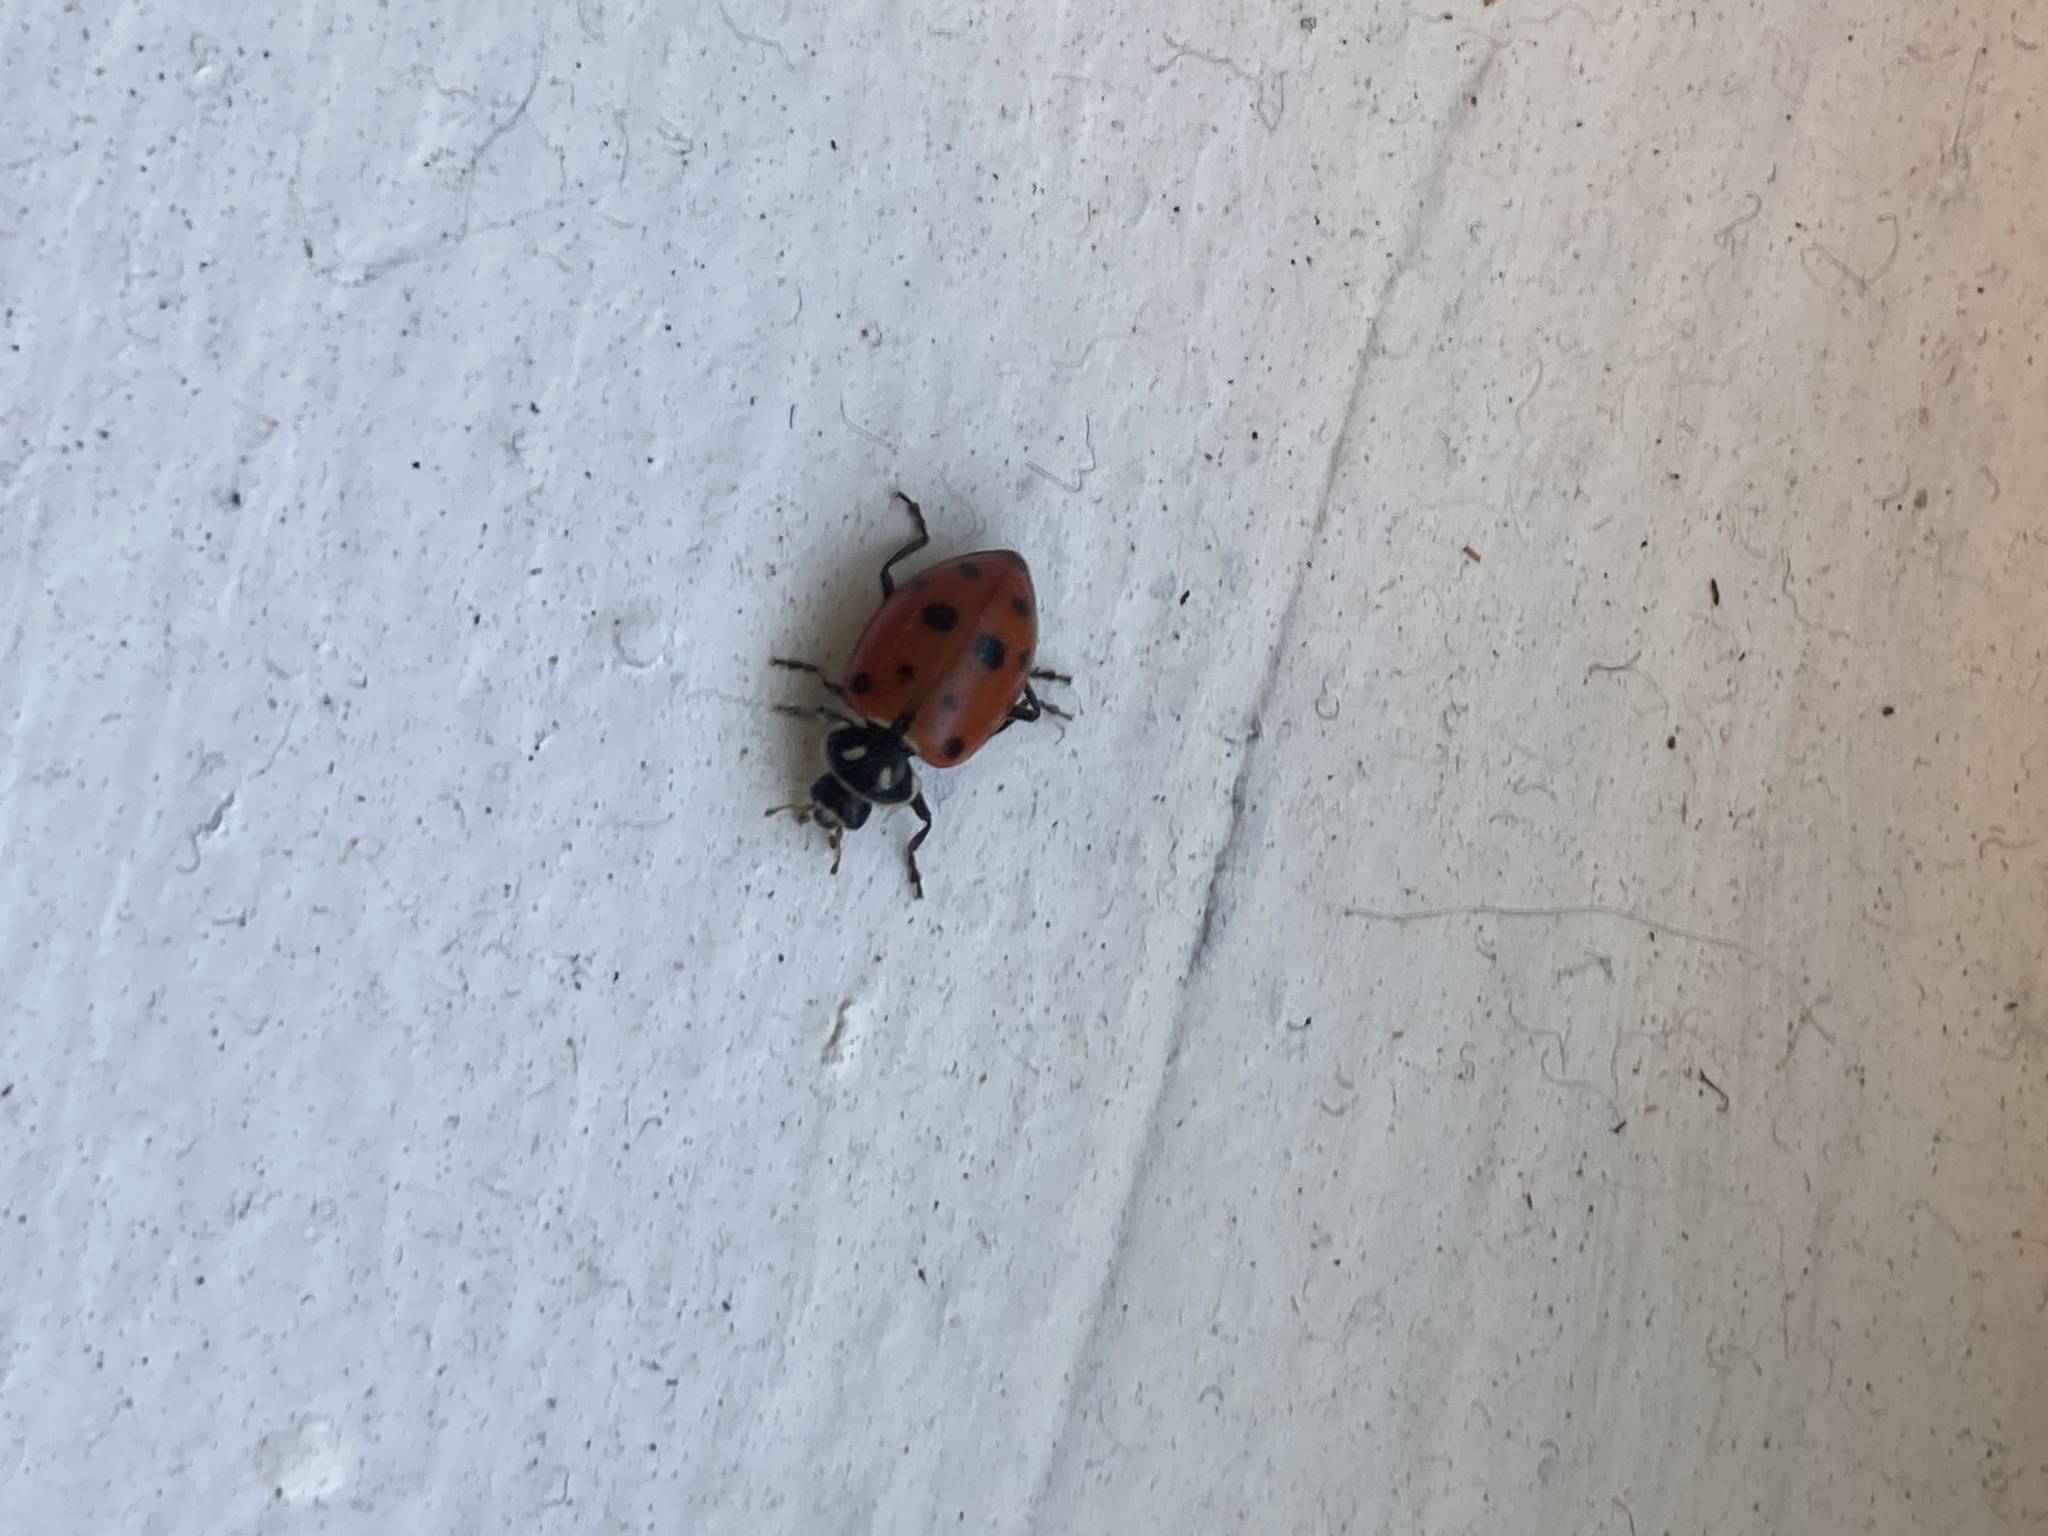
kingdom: Animalia
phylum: Arthropoda
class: Insecta
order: Coleoptera
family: Coccinellidae
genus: Hippodamia
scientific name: Hippodamia convergens
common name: Convergent lady beetle
